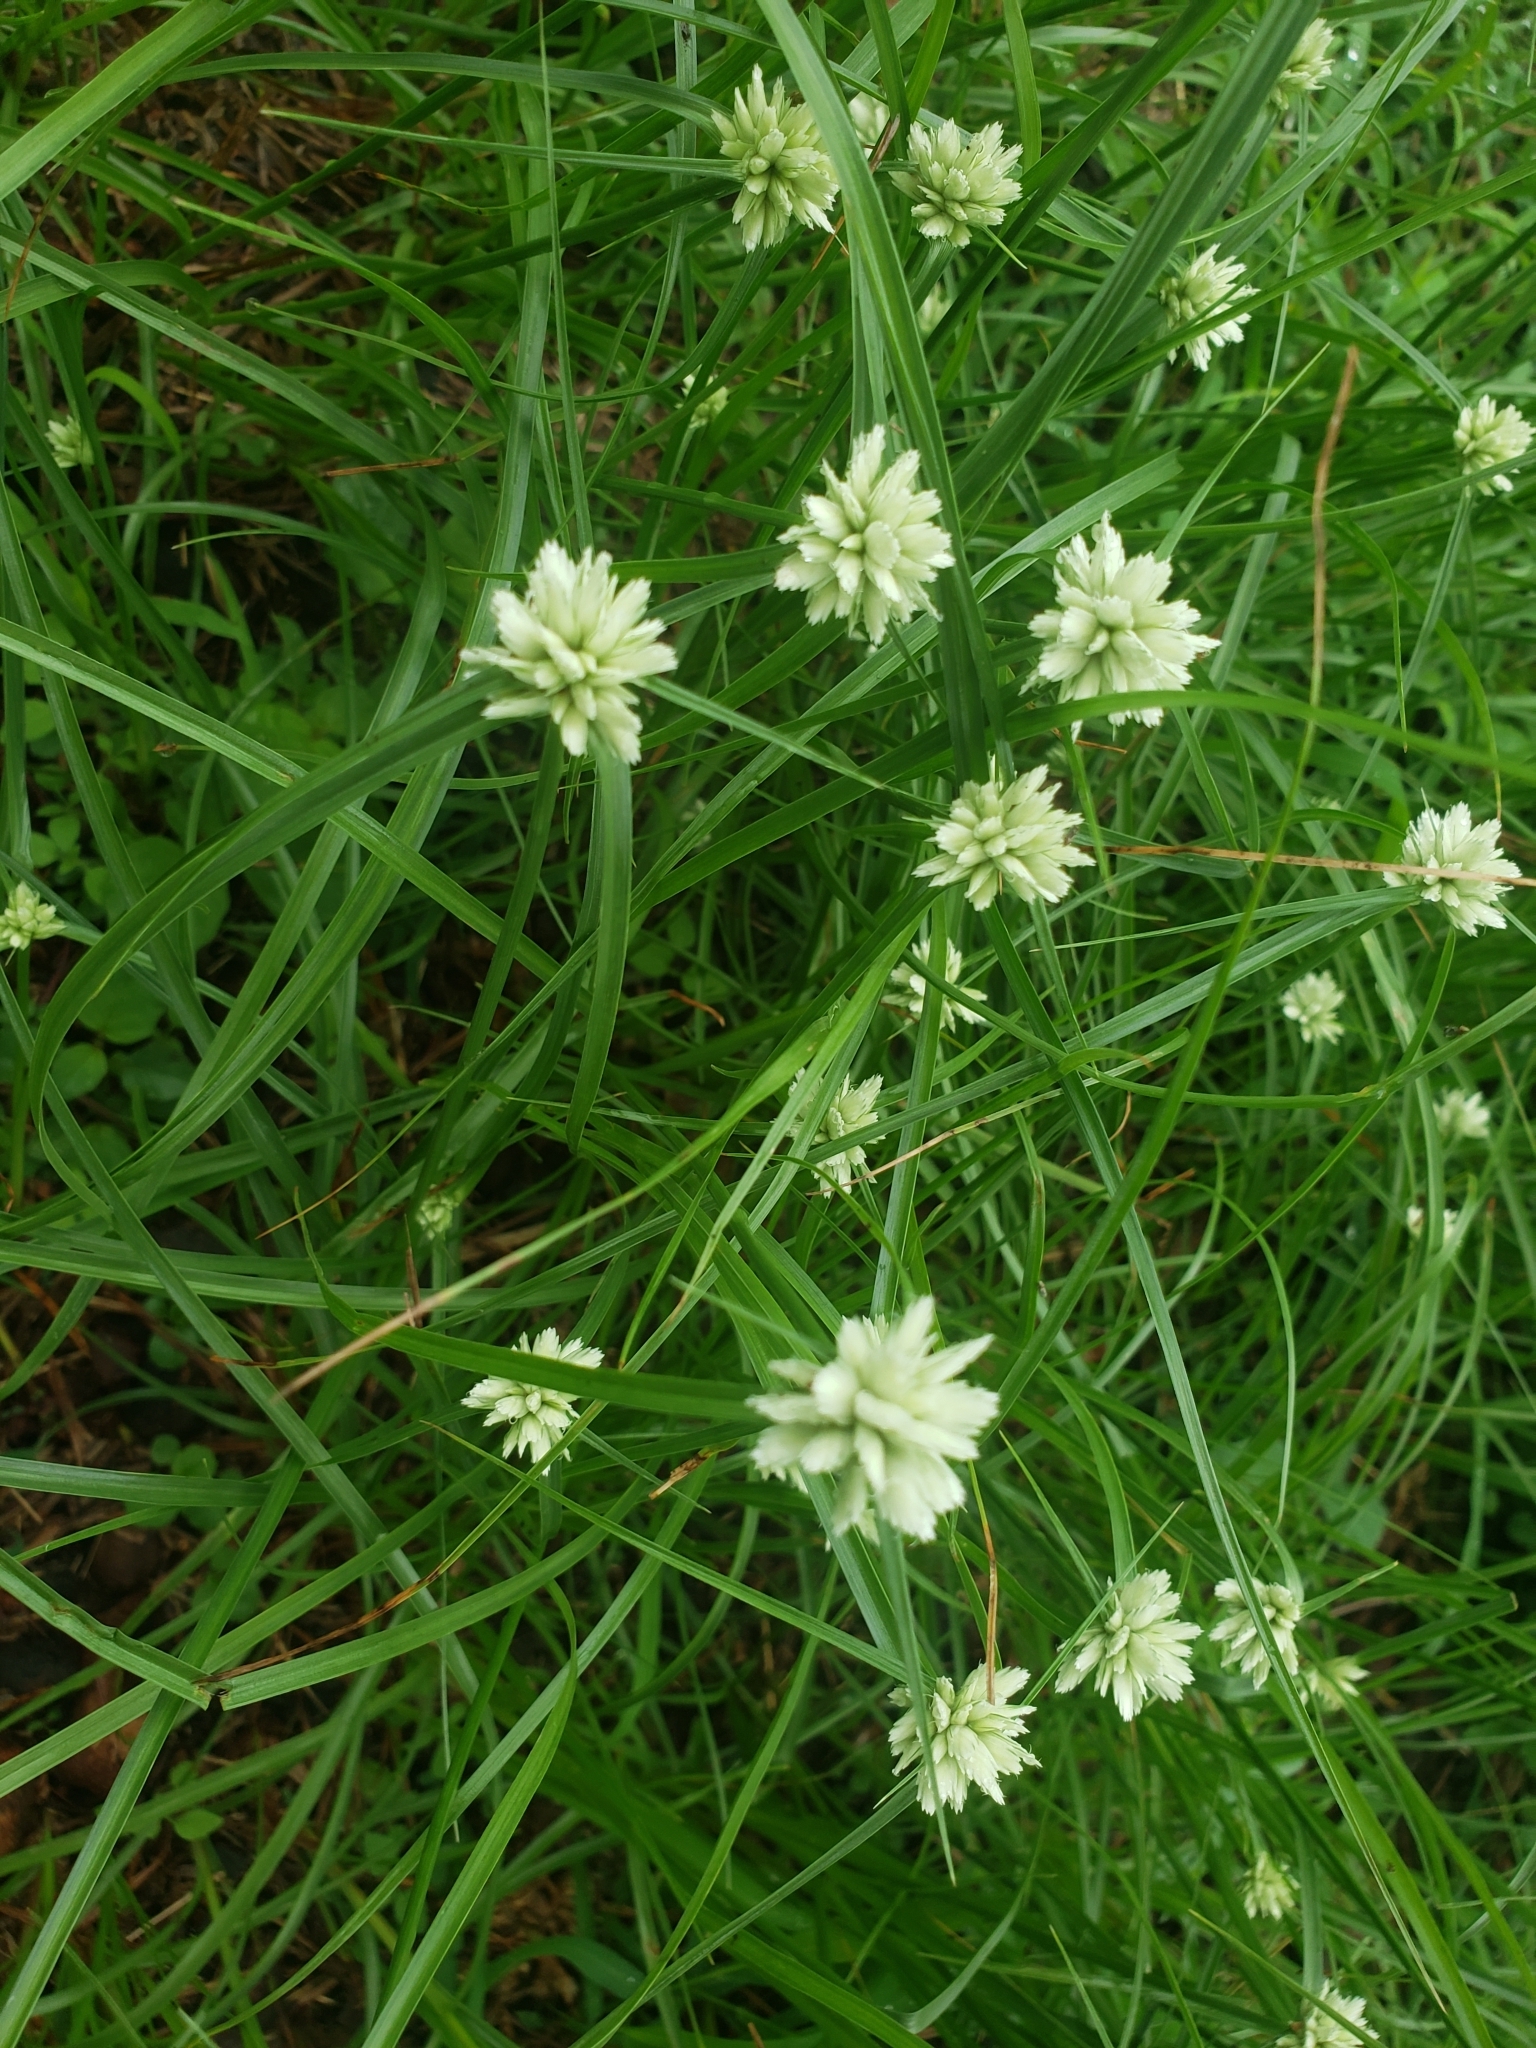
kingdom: Plantae
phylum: Tracheophyta
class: Liliopsida
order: Poales
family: Cyperaceae
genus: Cyperus
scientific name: Cyperus niveus
